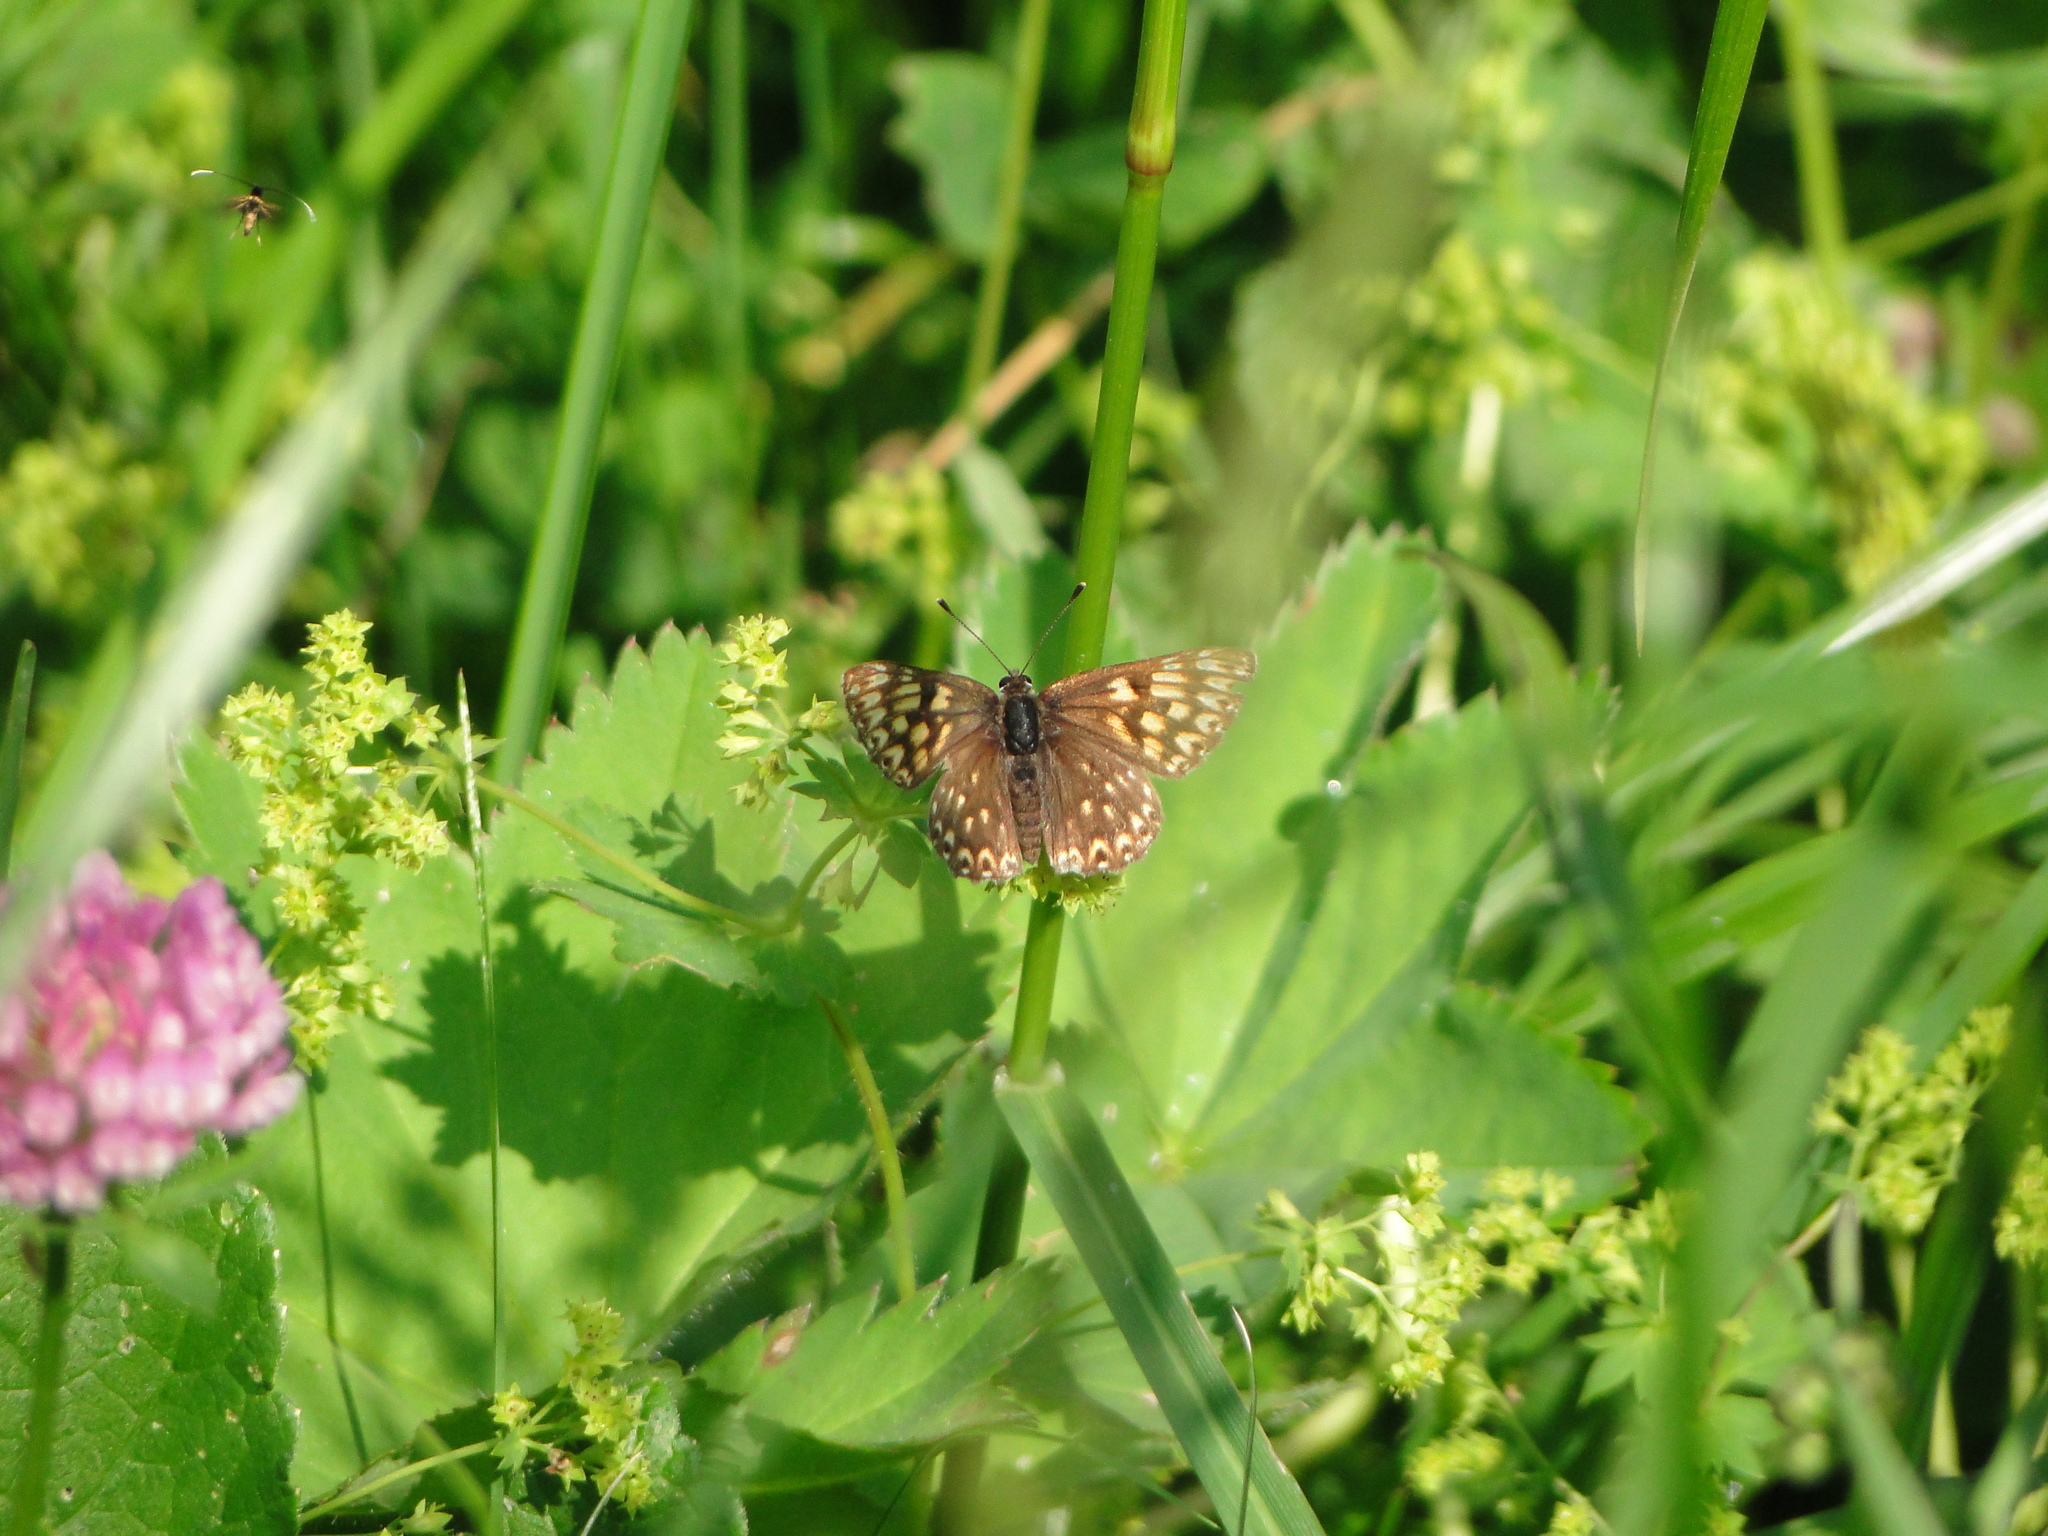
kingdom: Animalia
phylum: Arthropoda
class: Insecta
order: Lepidoptera
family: Riodinidae
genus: Hamearis
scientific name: Hamearis lucina
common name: Duke of burgundy fritillary
